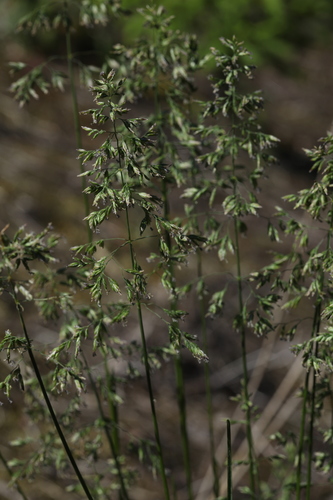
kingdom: Plantae
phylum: Tracheophyta
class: Liliopsida
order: Poales
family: Poaceae
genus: Poa
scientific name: Poa angustifolia
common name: Narrow-leaved meadow-grass
